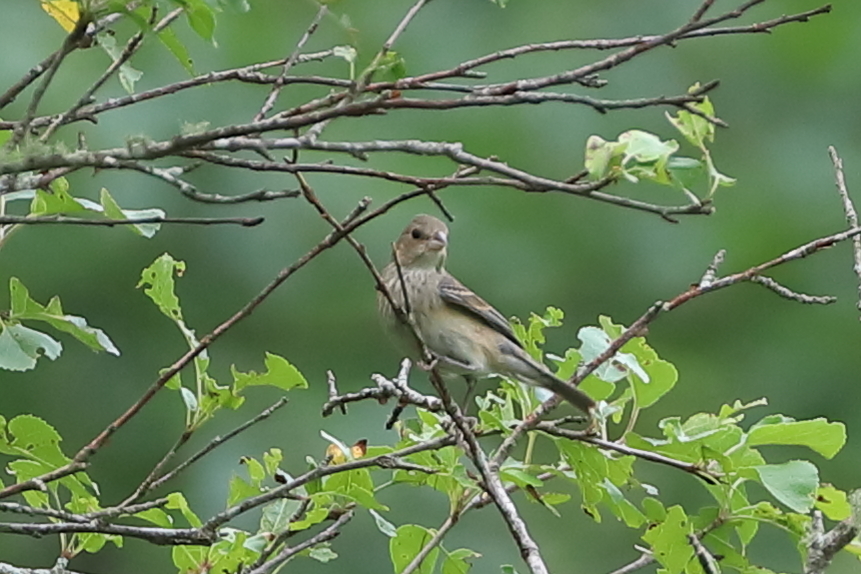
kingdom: Animalia
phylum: Chordata
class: Aves
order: Passeriformes
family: Cardinalidae
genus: Passerina
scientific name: Passerina cyanea
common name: Indigo bunting
